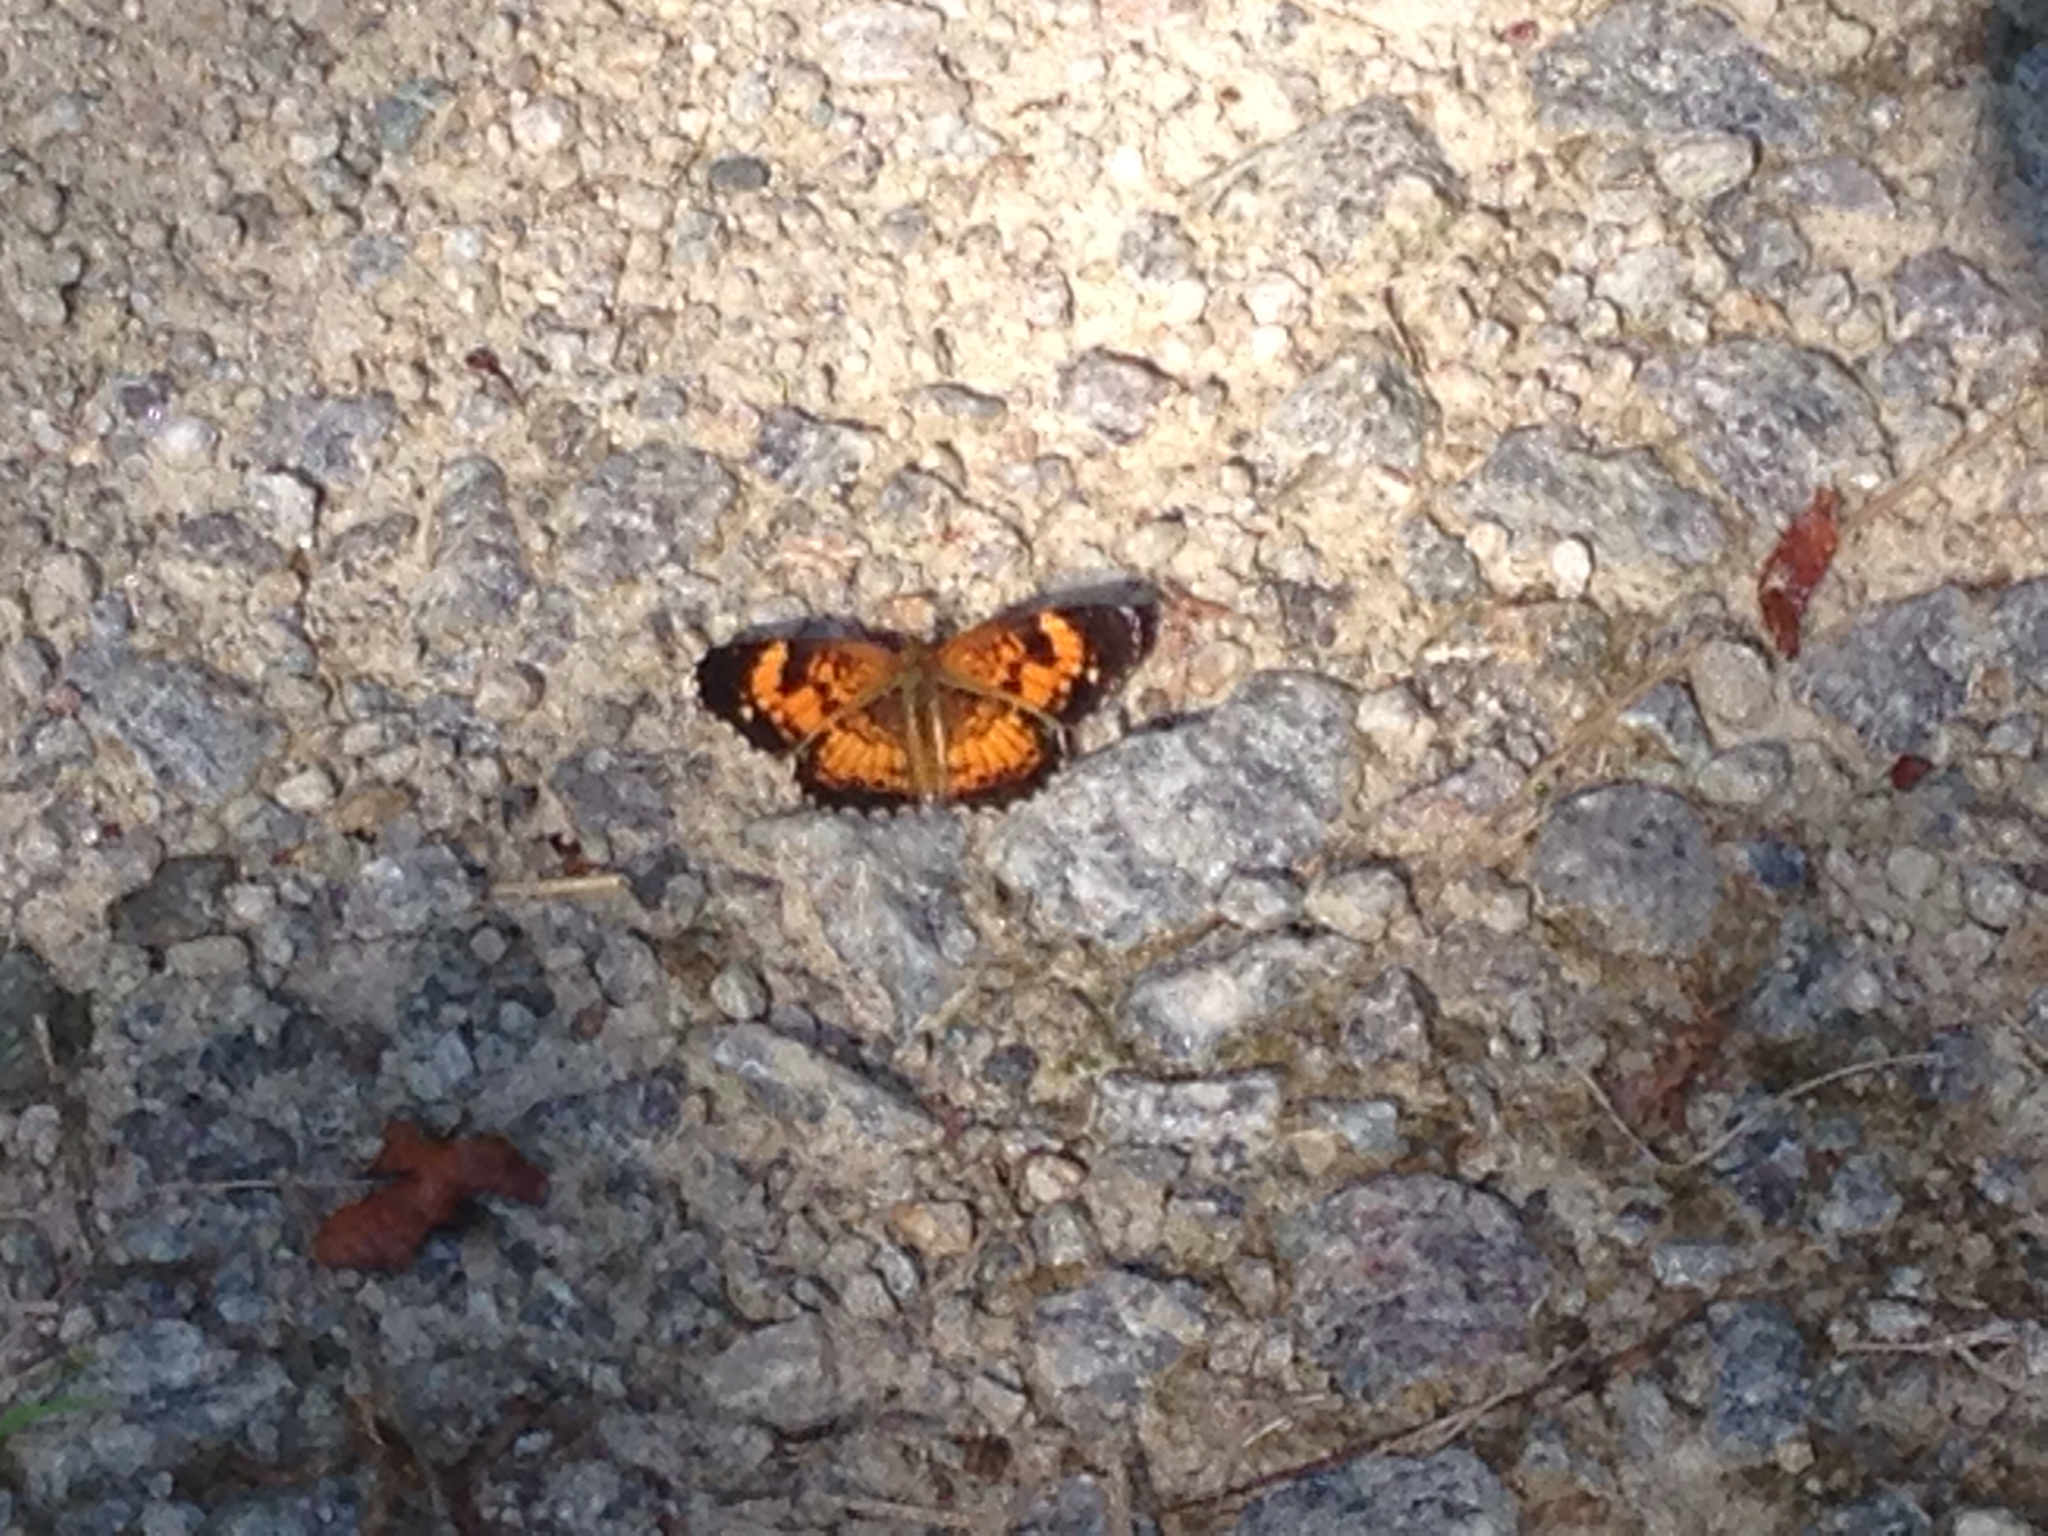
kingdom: Animalia
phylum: Arthropoda
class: Insecta
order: Lepidoptera
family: Nymphalidae
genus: Phyciodes
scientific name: Phyciodes tharos
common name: Pearl crescent
